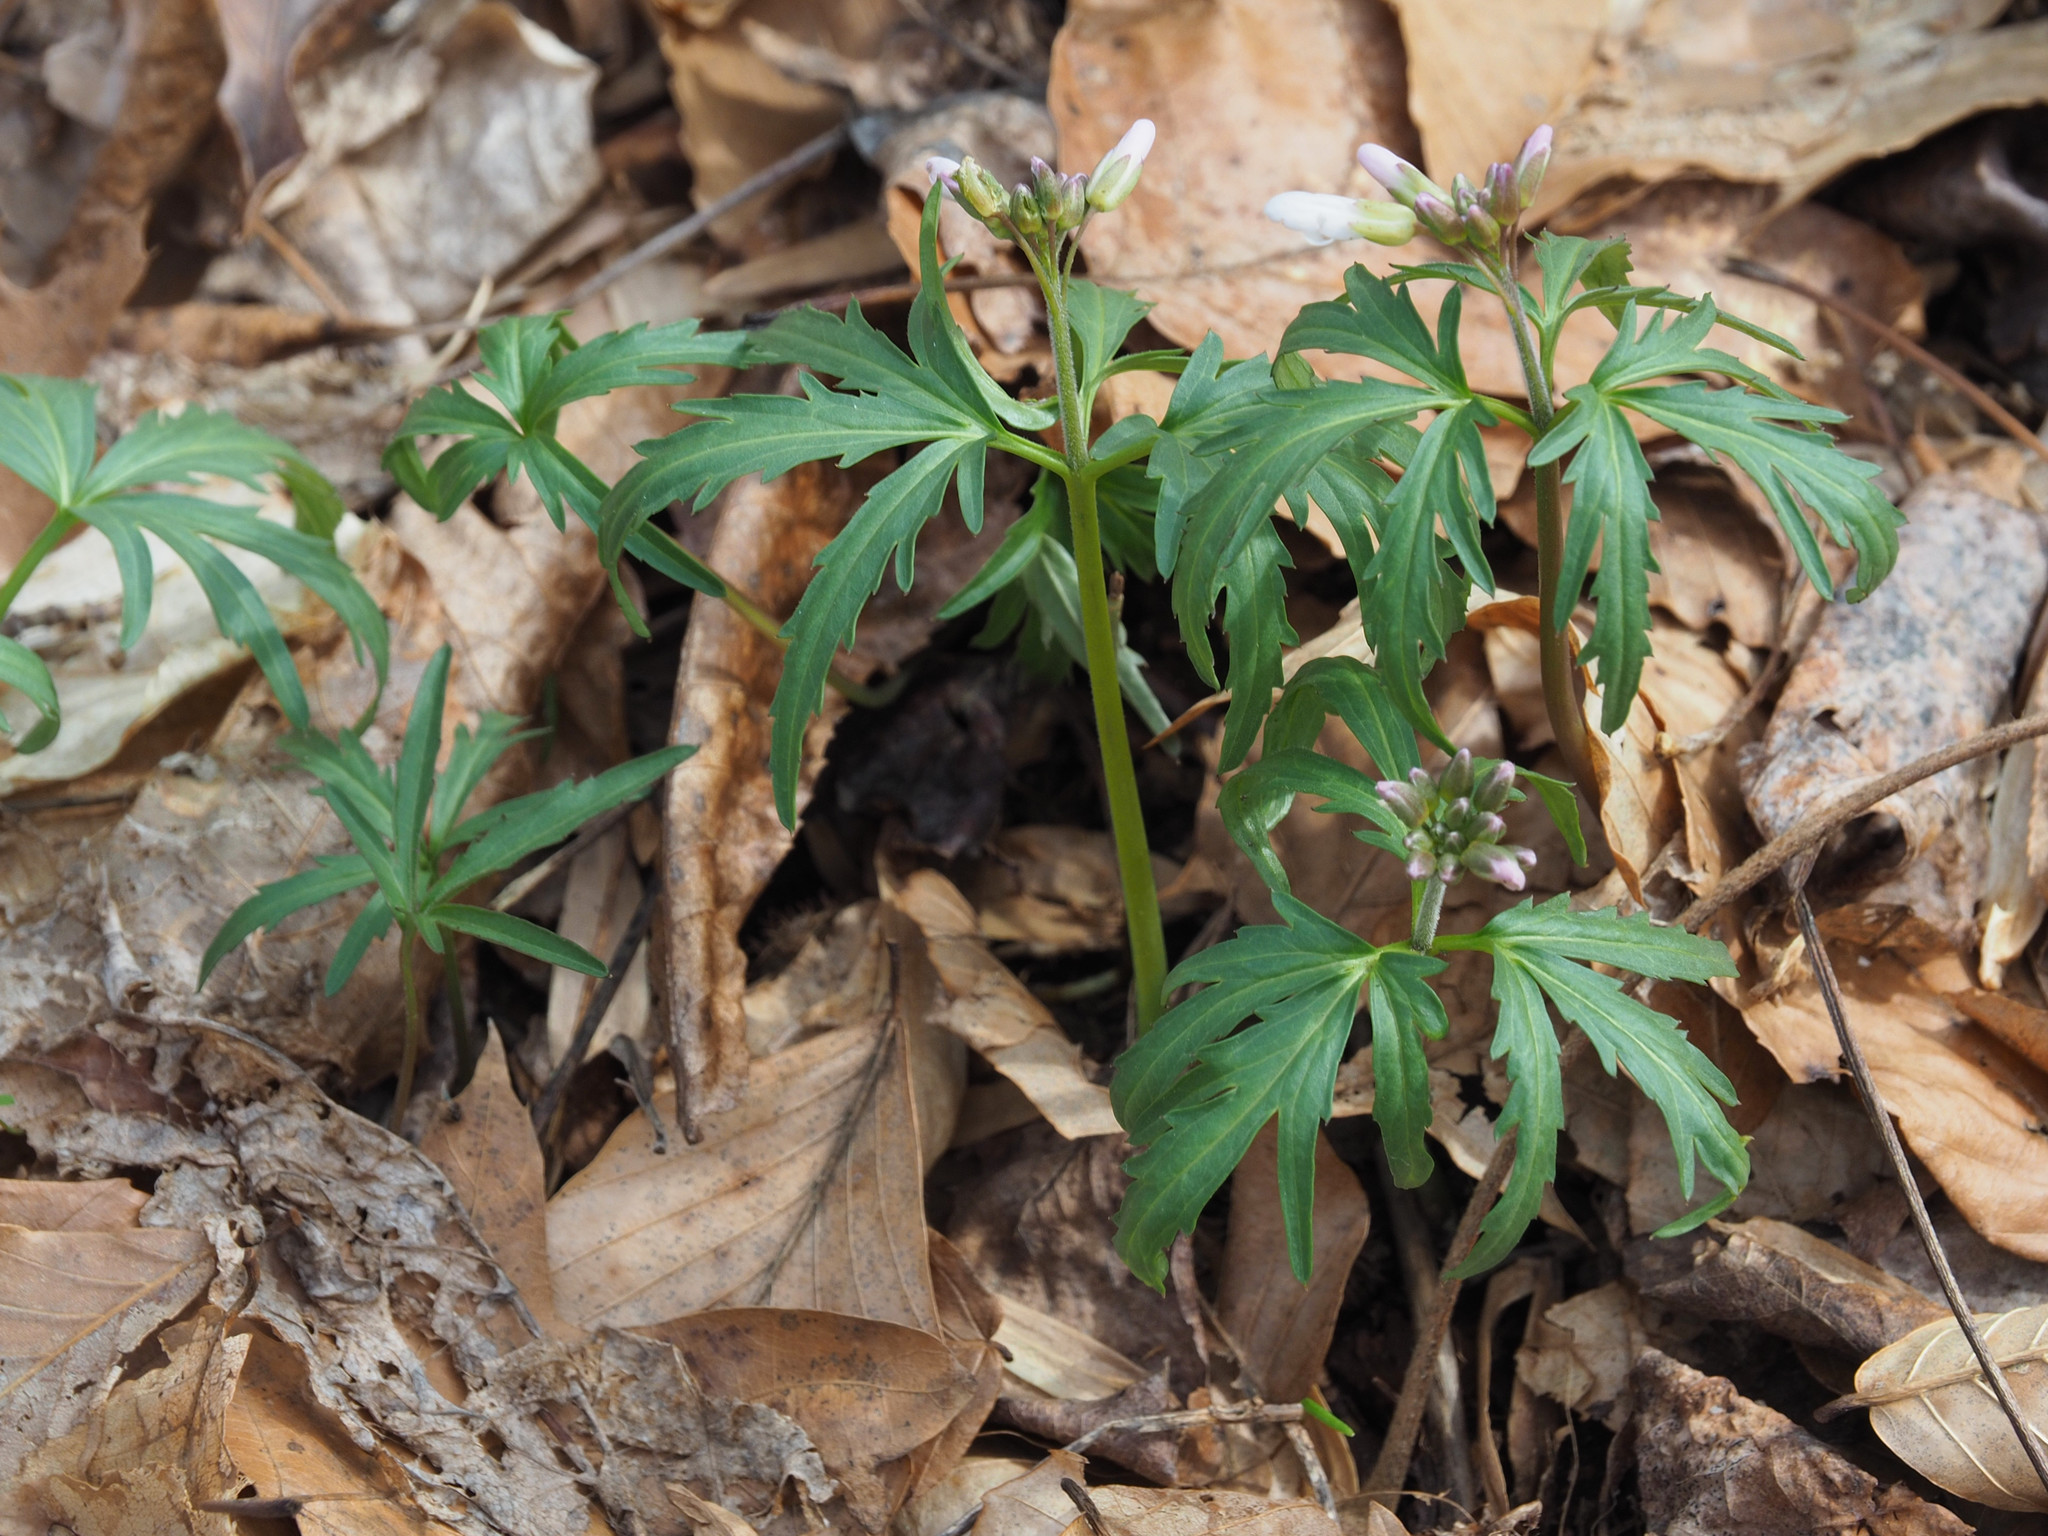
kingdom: Plantae
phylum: Tracheophyta
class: Magnoliopsida
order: Brassicales
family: Brassicaceae
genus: Cardamine
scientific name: Cardamine concatenata
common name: Cut-leaf toothcup
